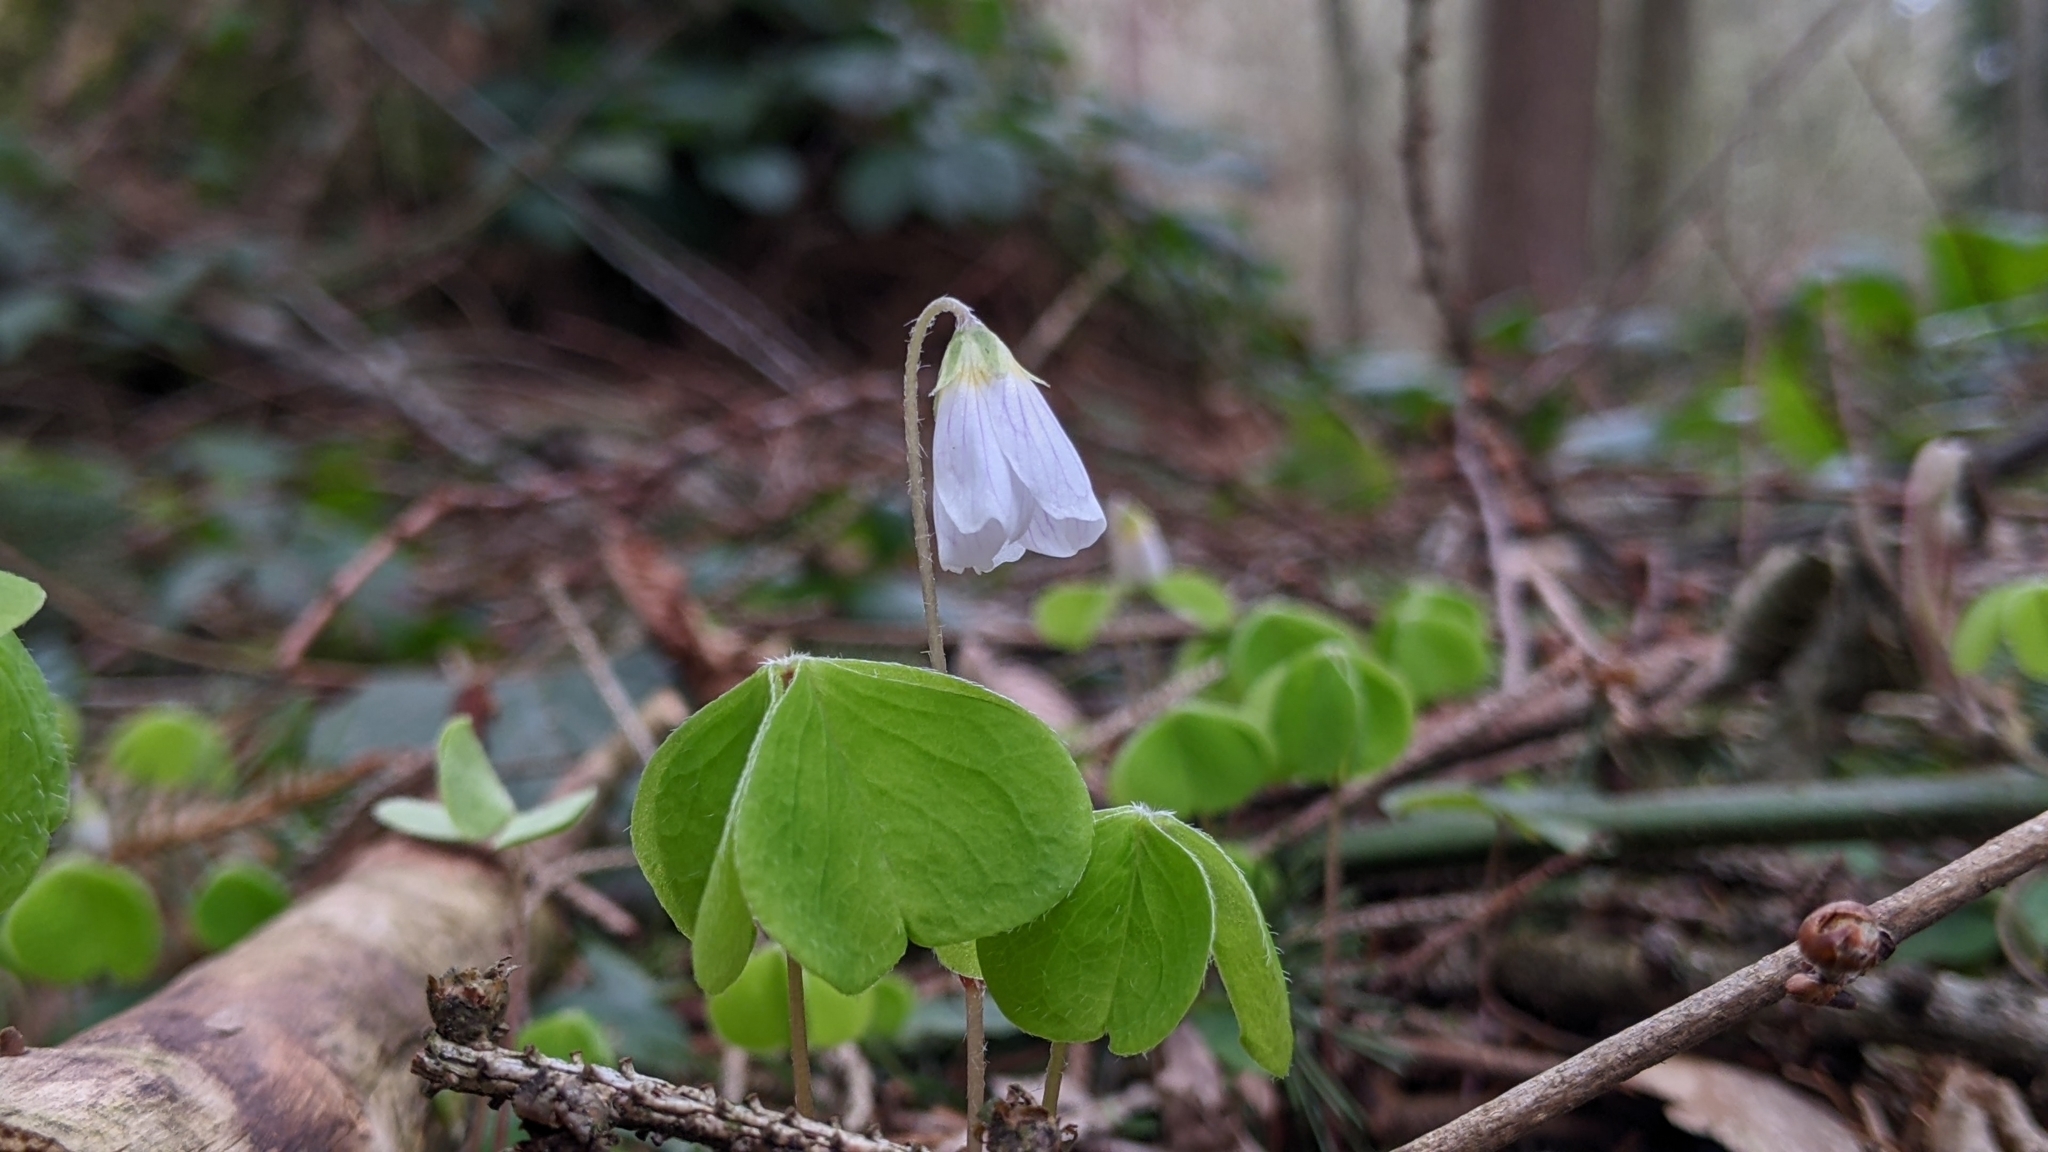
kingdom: Plantae
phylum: Tracheophyta
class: Magnoliopsida
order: Oxalidales
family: Oxalidaceae
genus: Oxalis
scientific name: Oxalis acetosella
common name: Wood-sorrel
